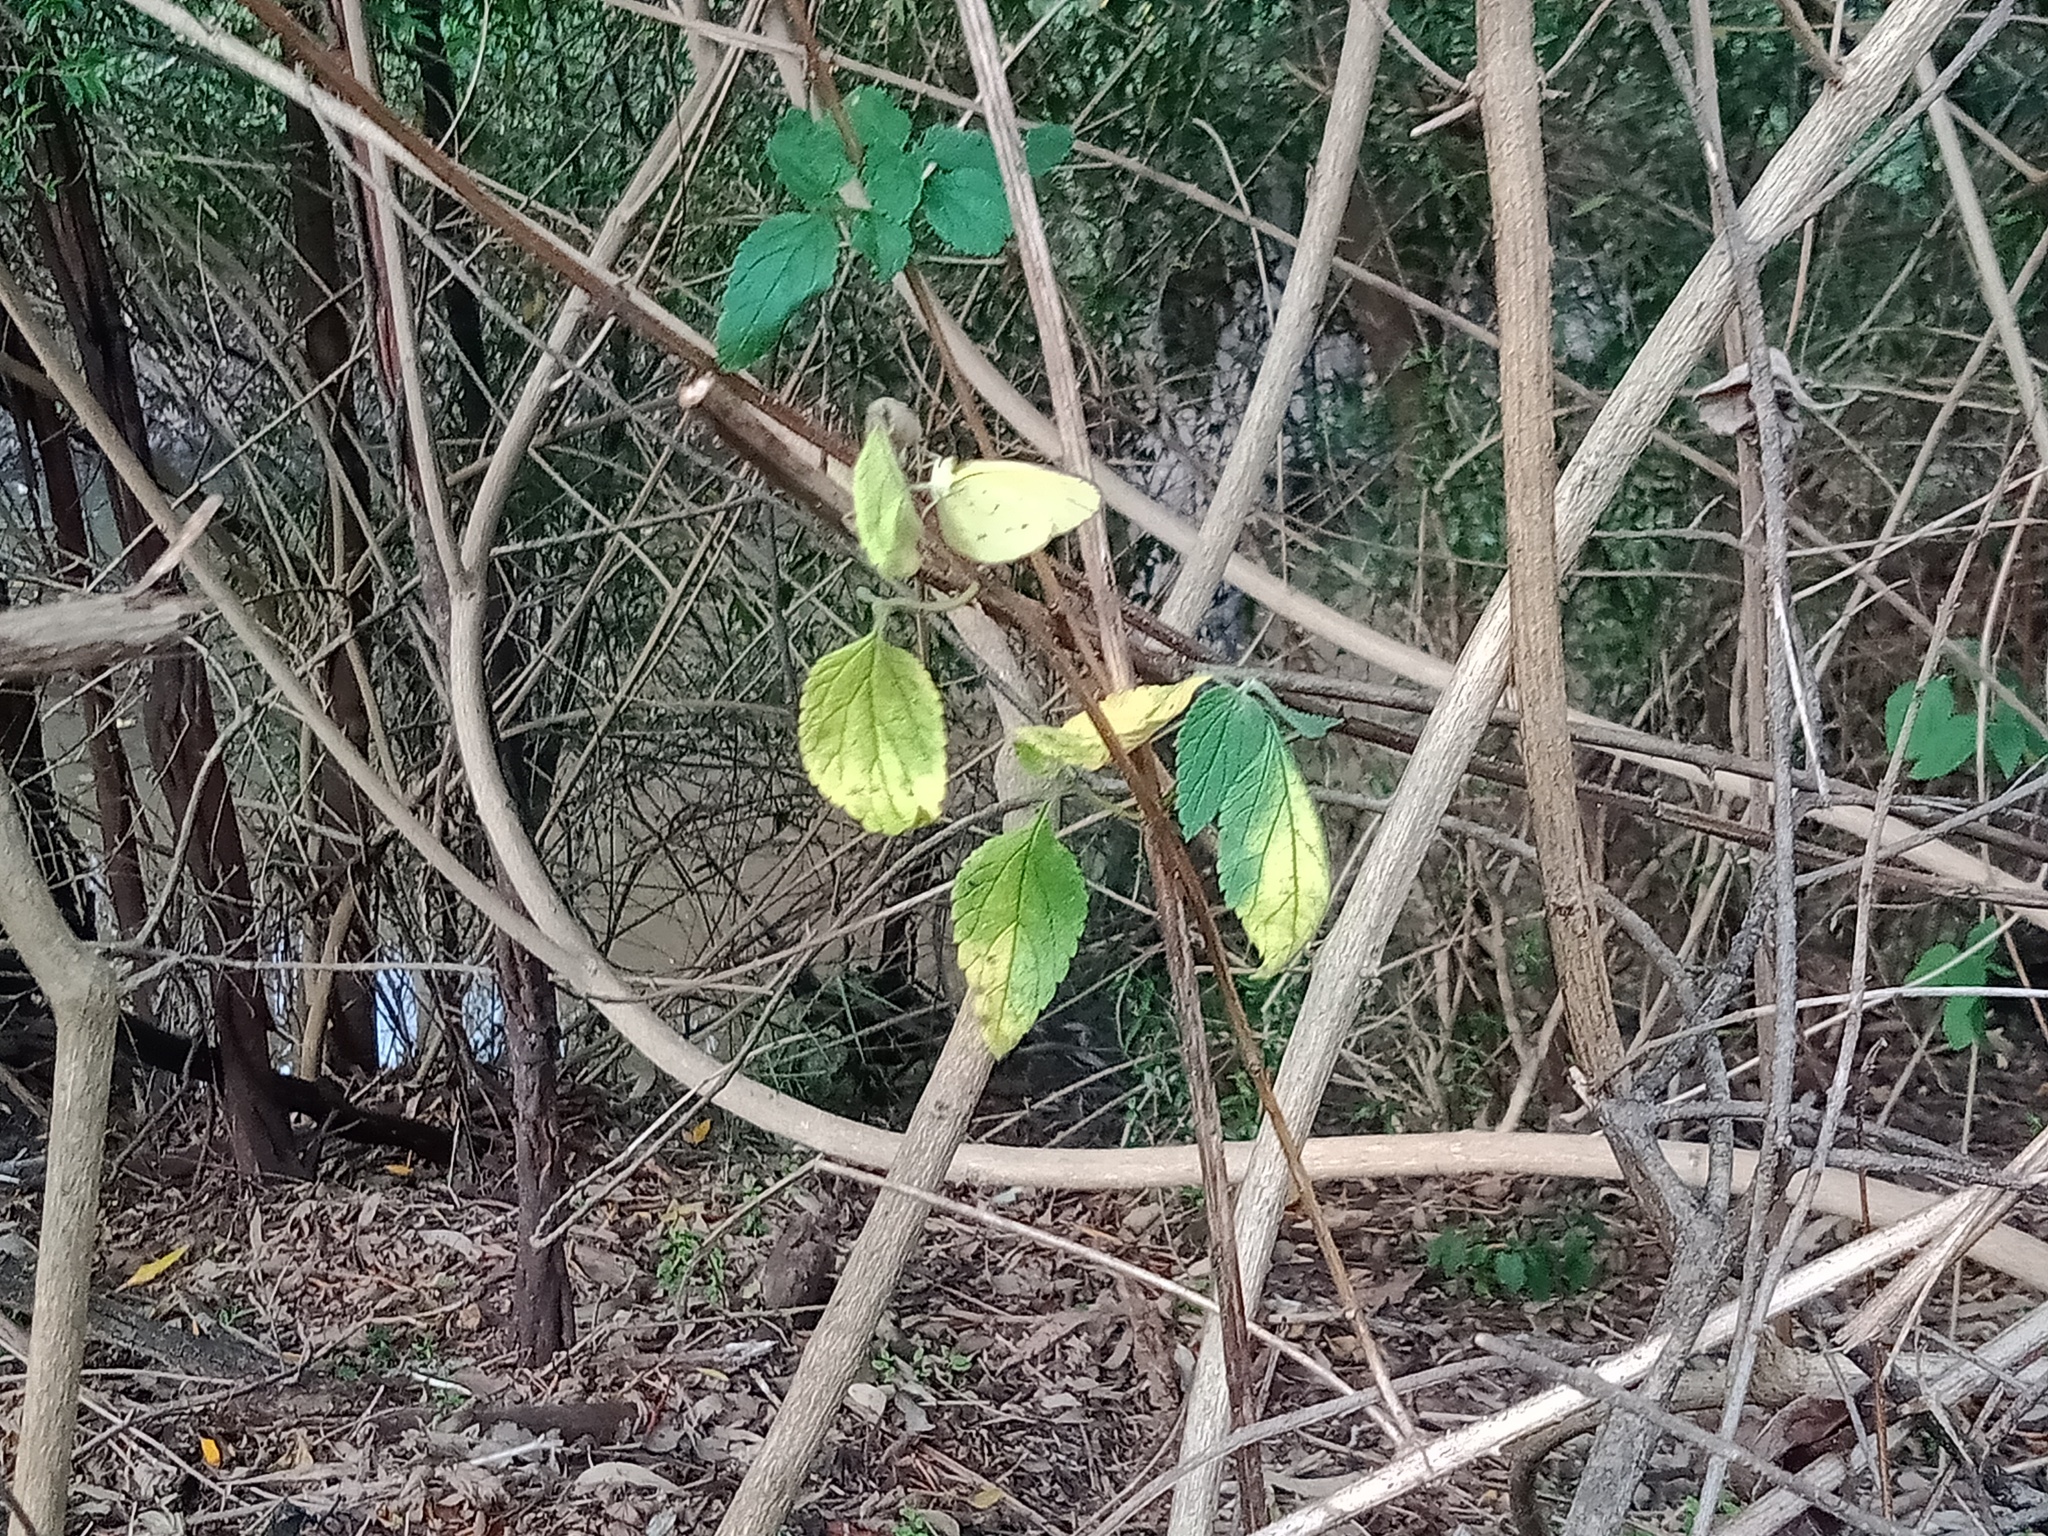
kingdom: Animalia
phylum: Arthropoda
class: Insecta
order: Lepidoptera
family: Pieridae
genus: Eurema
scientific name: Eurema hecabe
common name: Pale grass yellow
